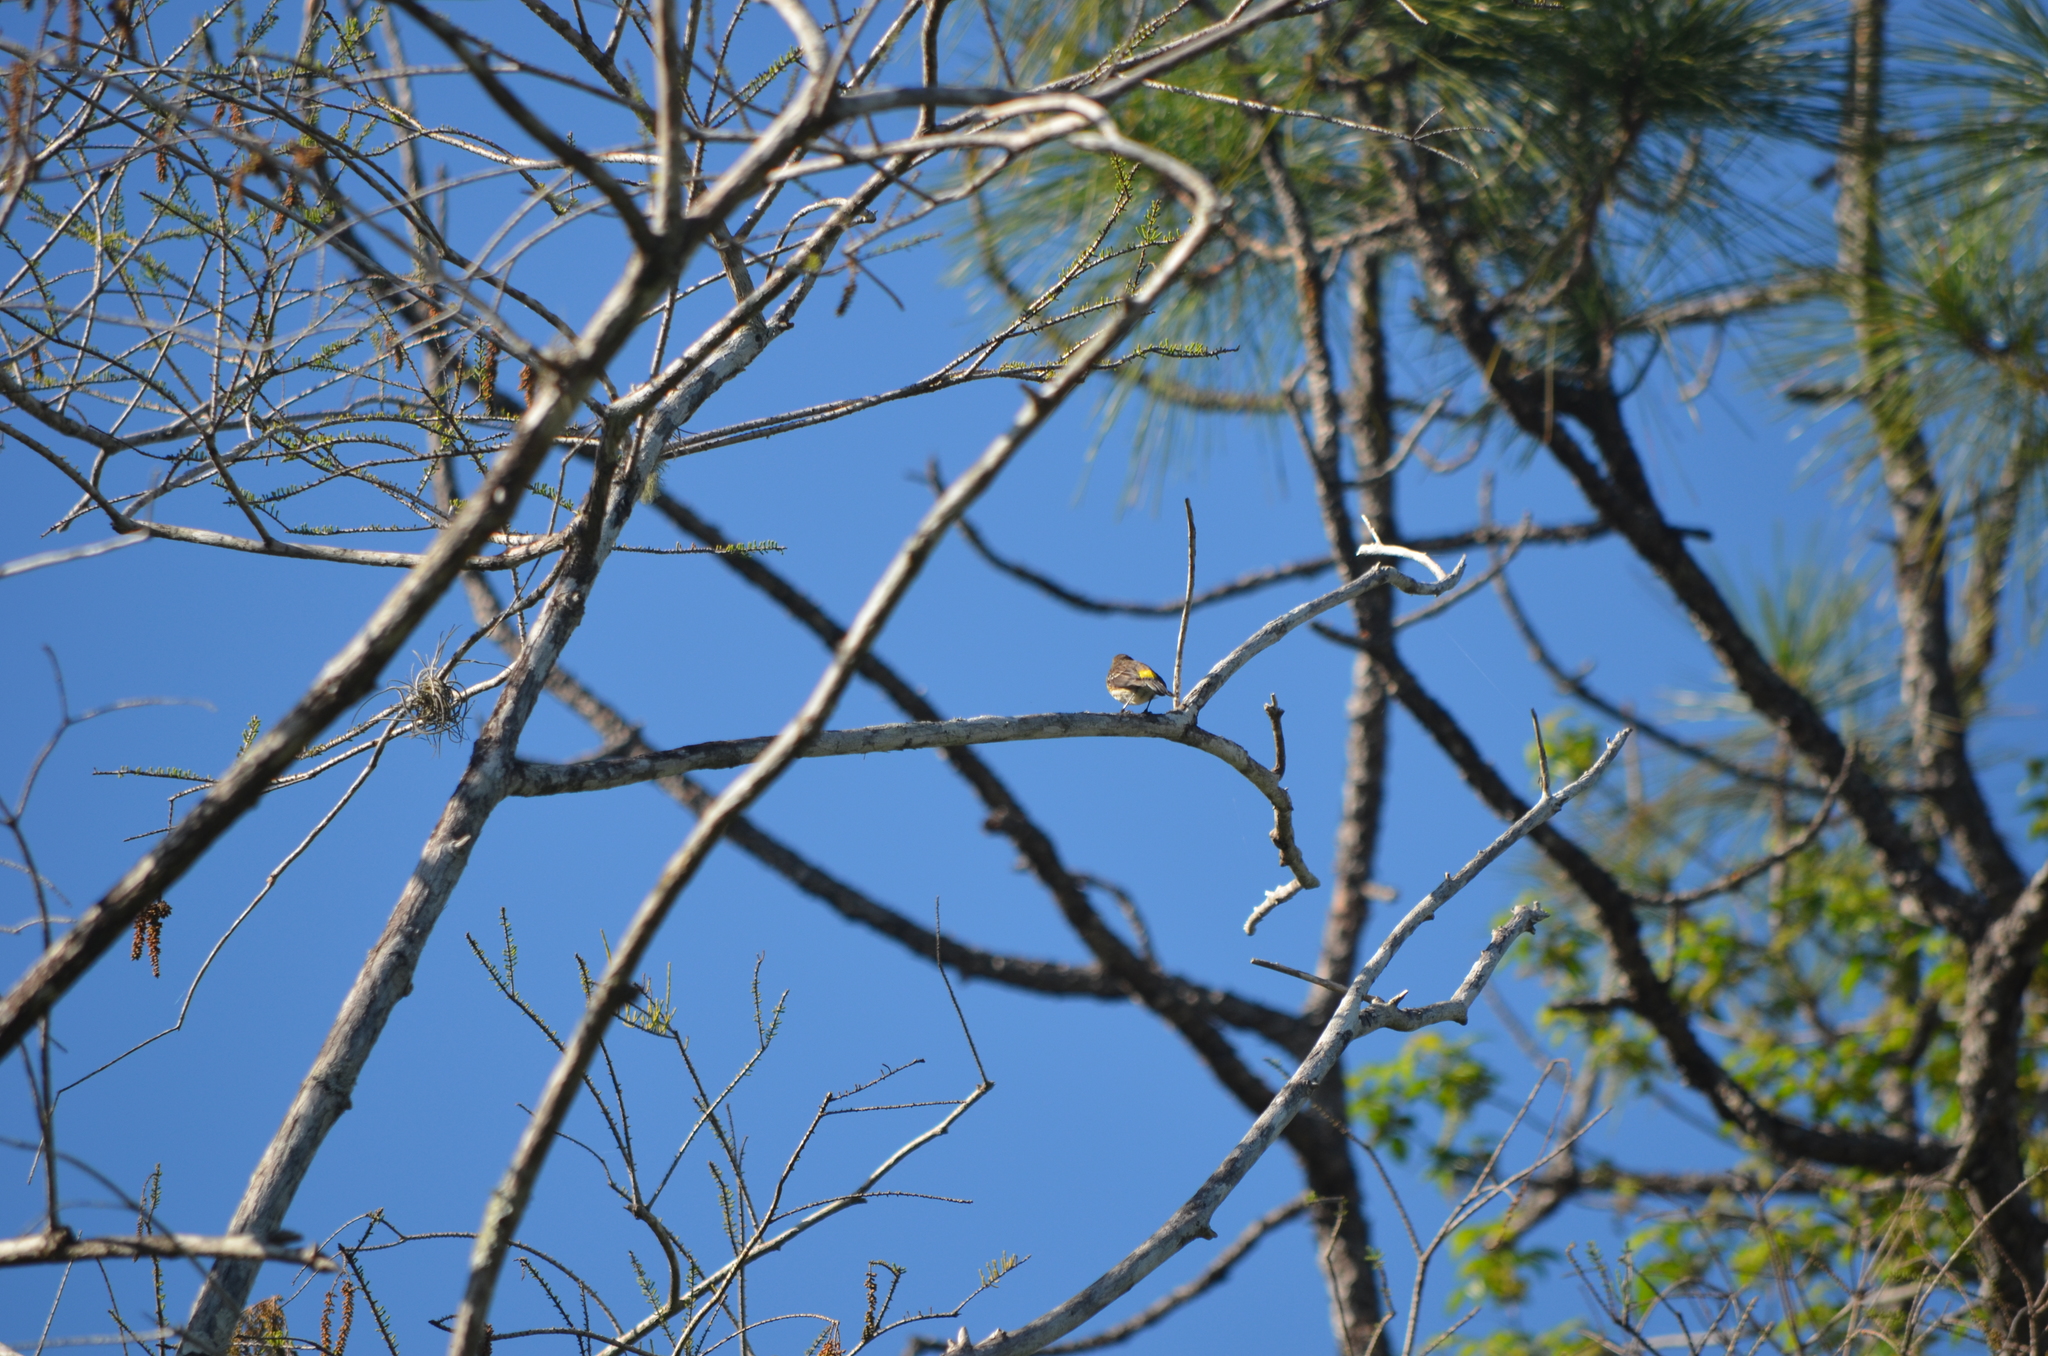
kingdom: Animalia
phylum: Chordata
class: Aves
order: Passeriformes
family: Parulidae
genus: Setophaga
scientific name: Setophaga coronata
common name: Myrtle warbler
